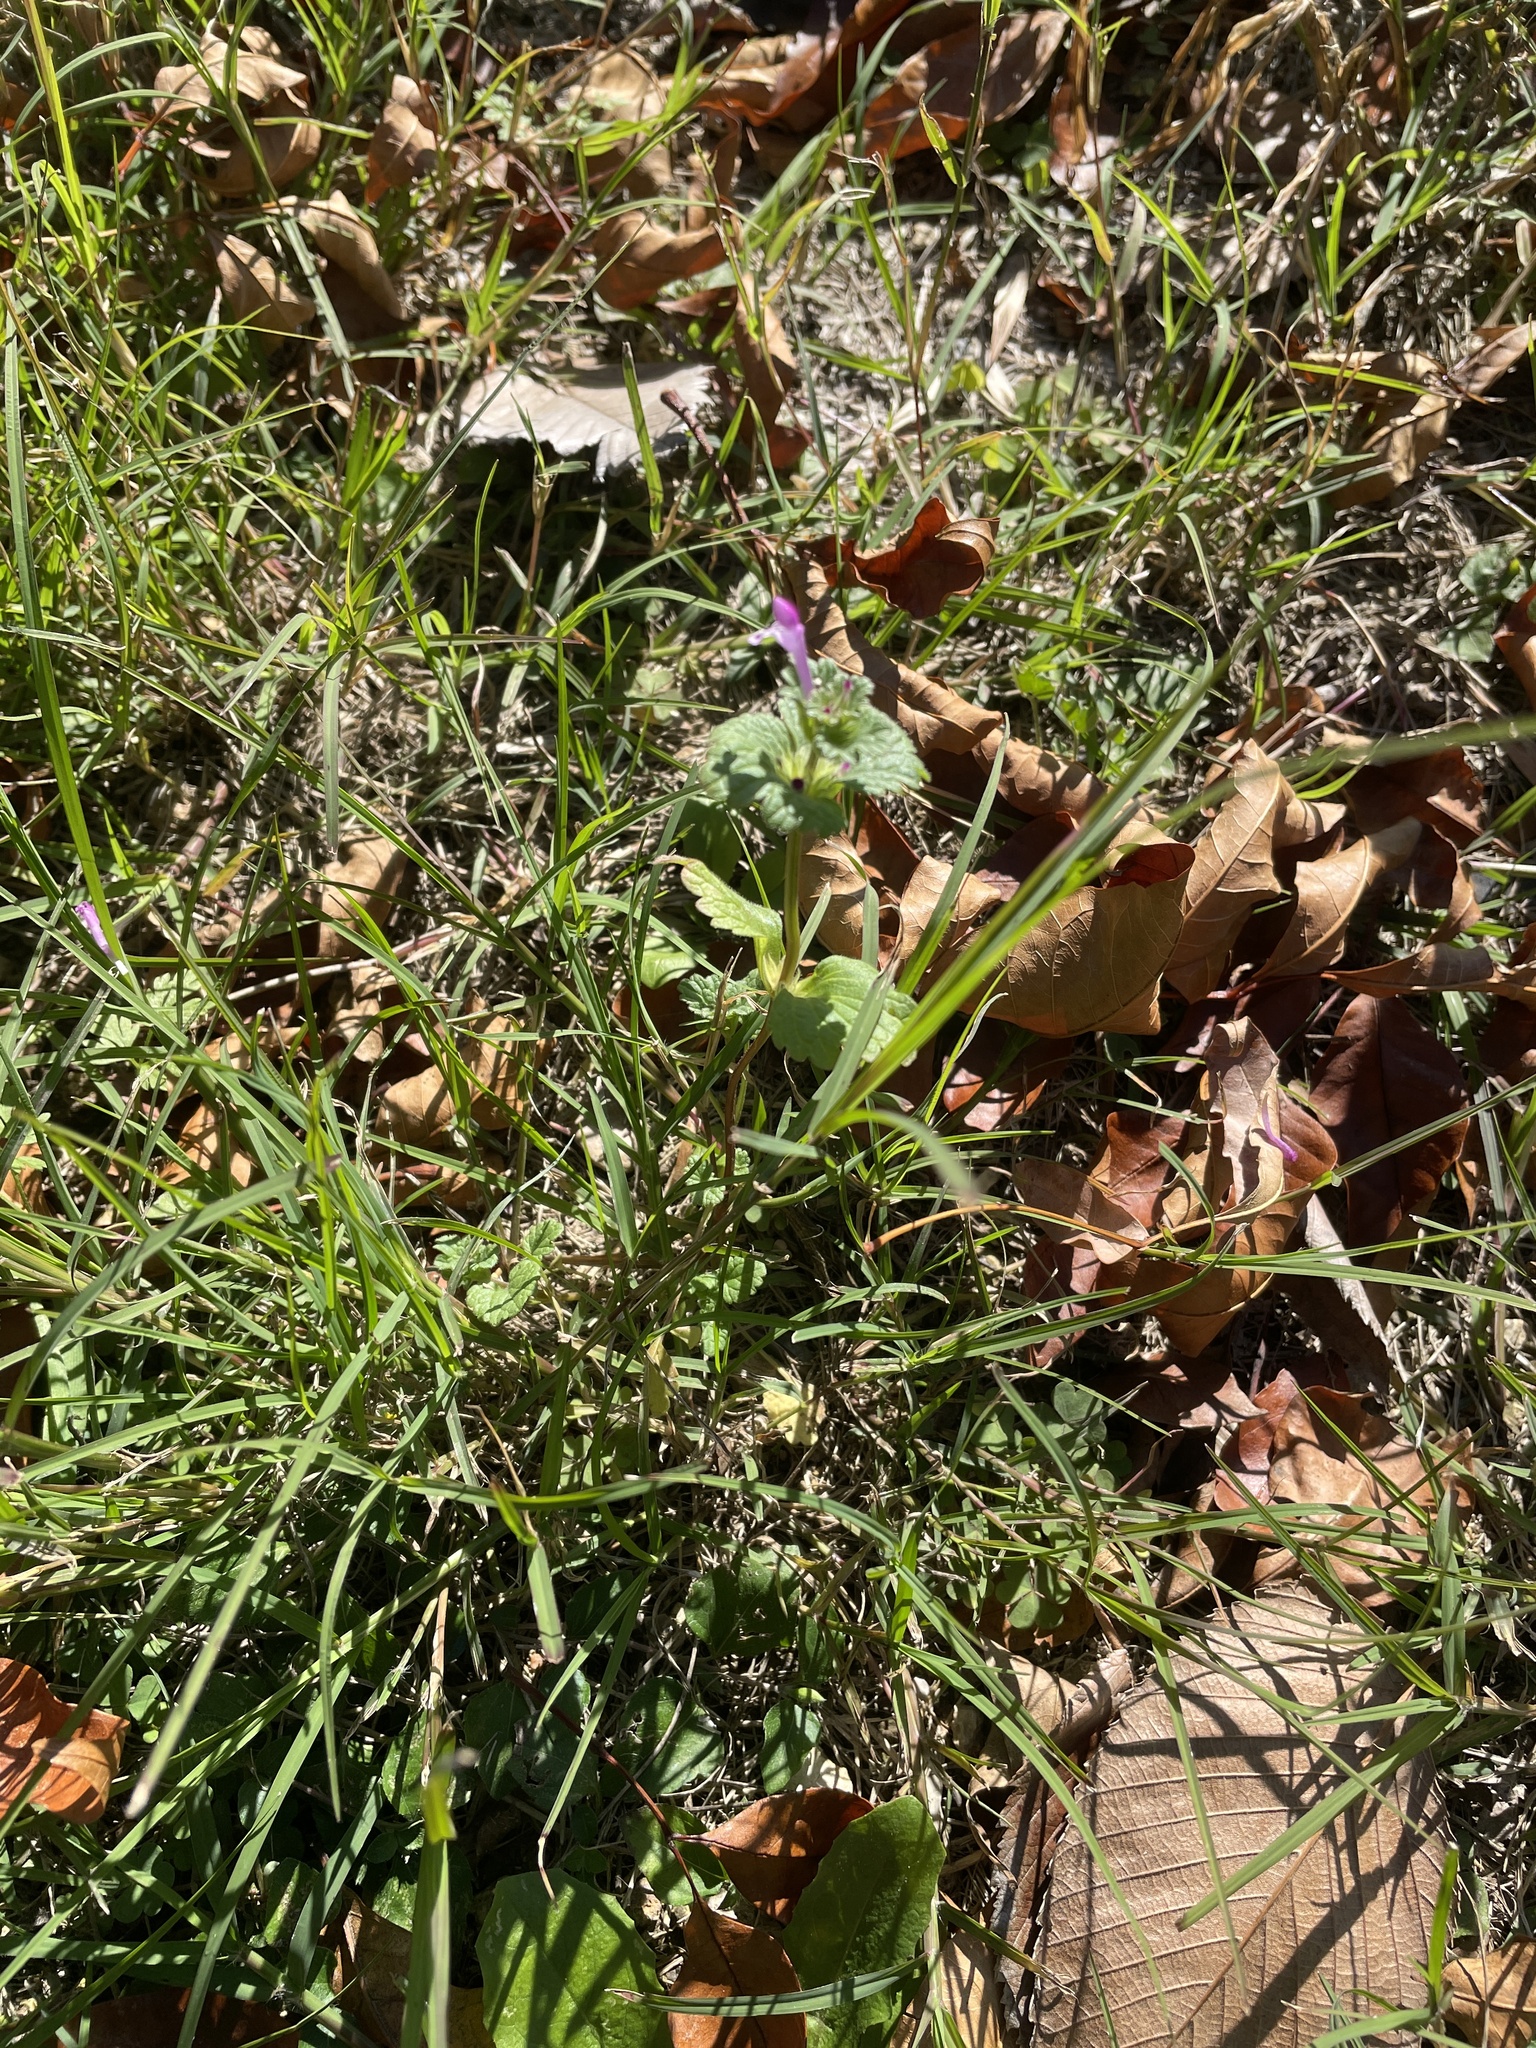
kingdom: Plantae
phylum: Tracheophyta
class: Magnoliopsida
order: Lamiales
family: Lamiaceae
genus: Lamium
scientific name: Lamium amplexicaule
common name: Henbit dead-nettle
